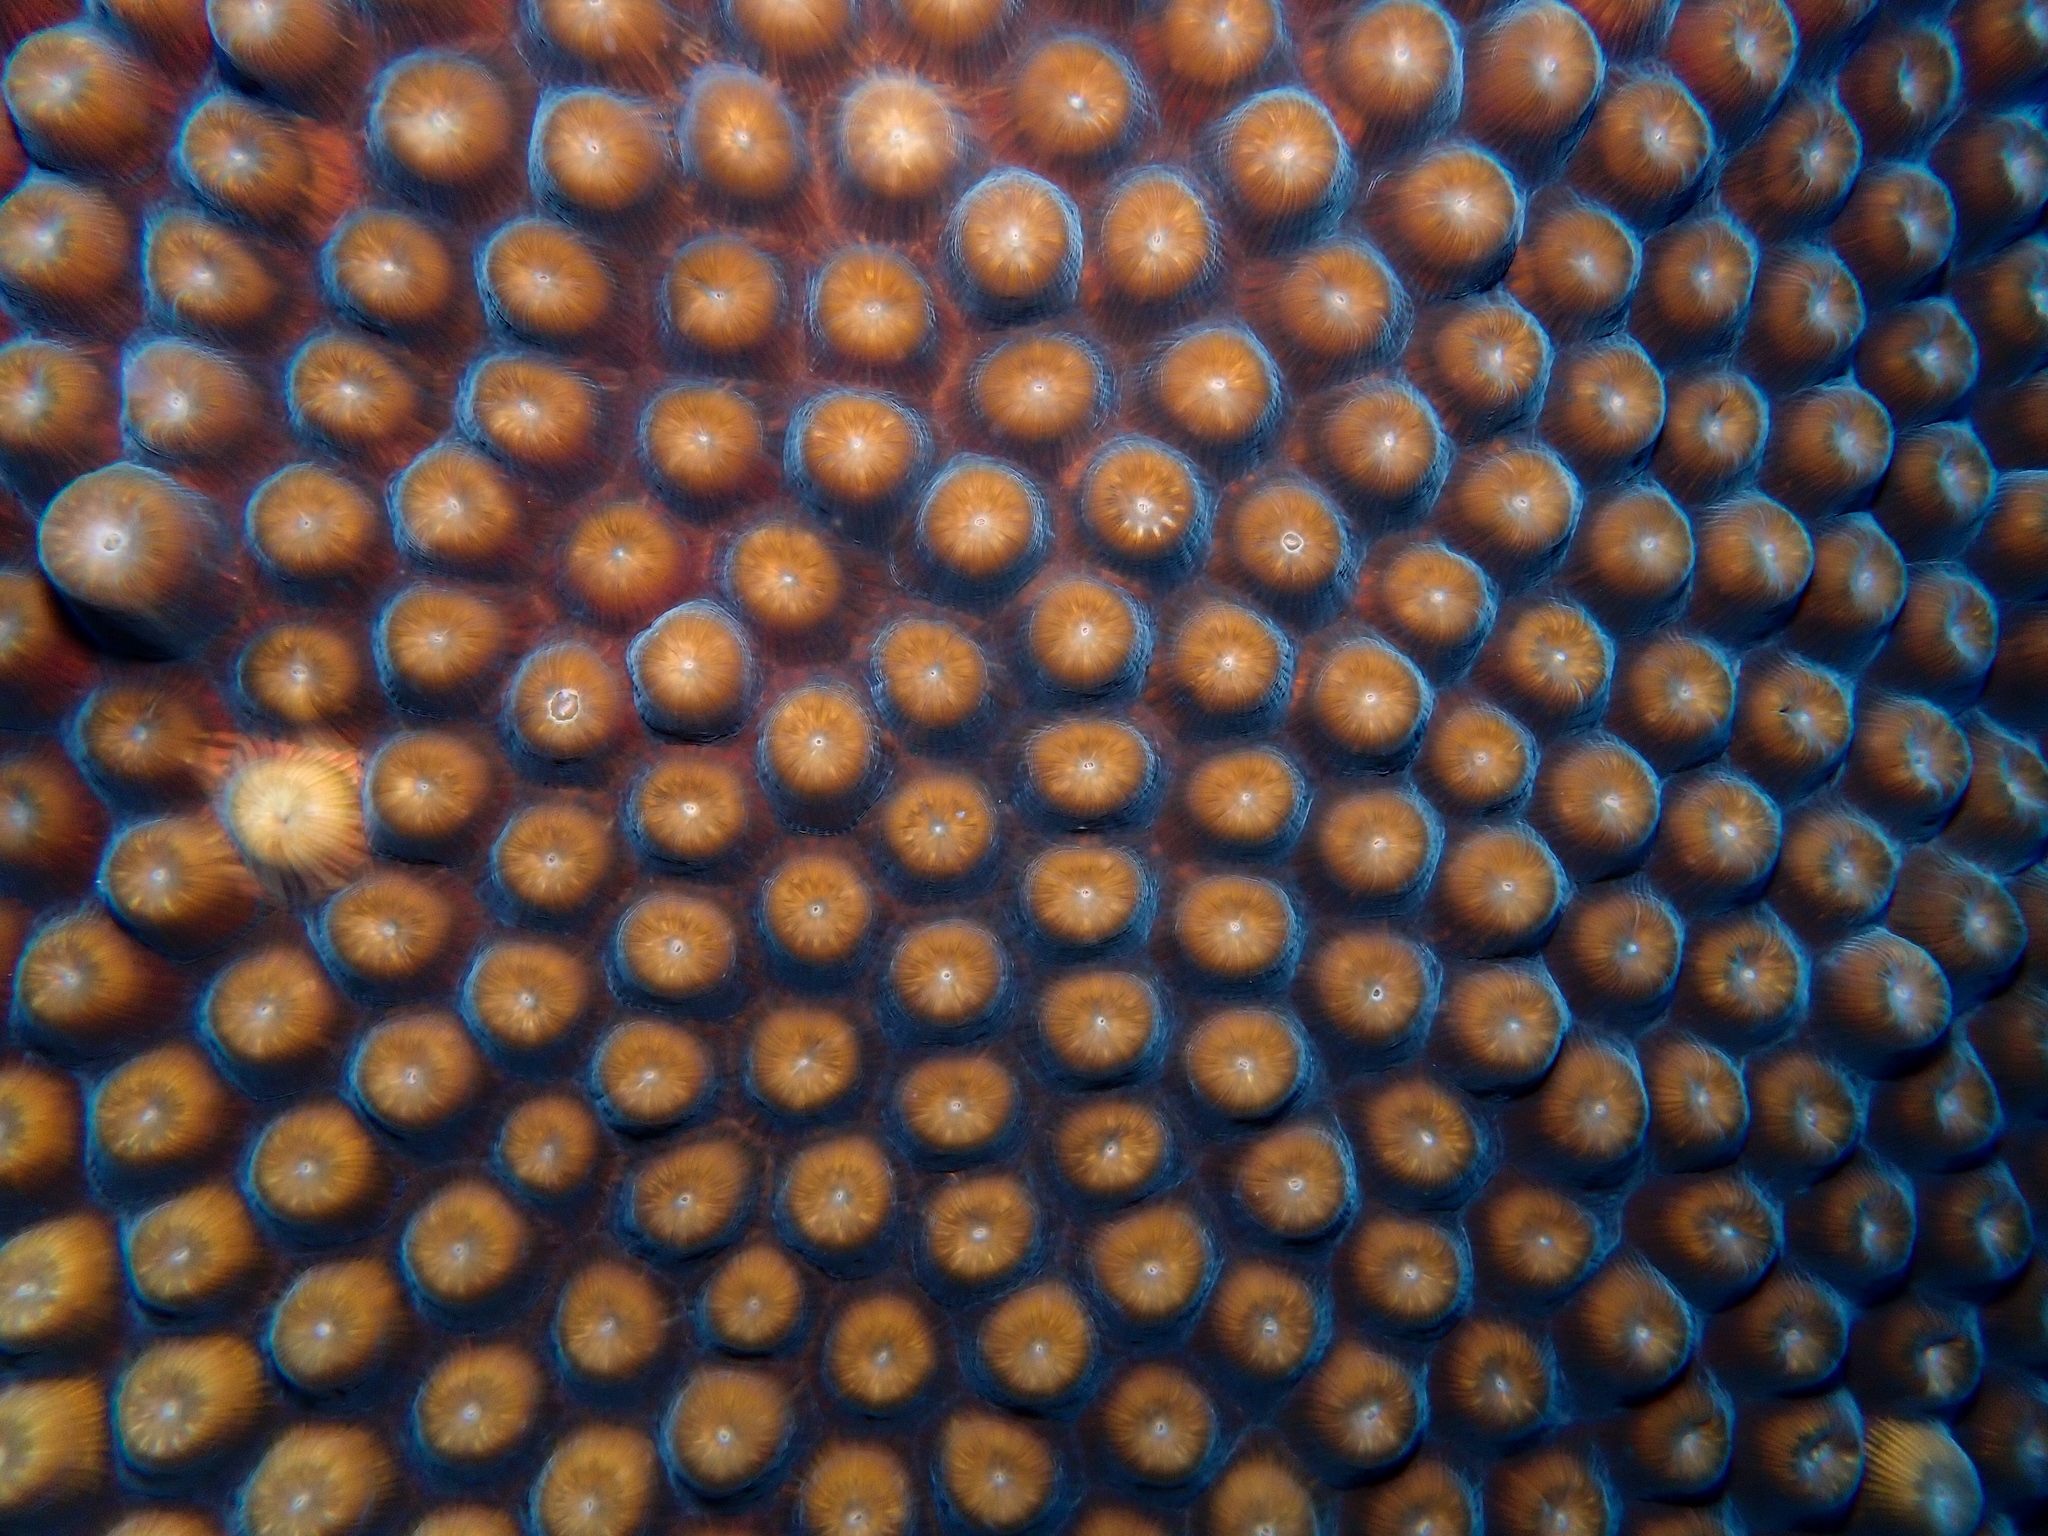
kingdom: Animalia
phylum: Cnidaria
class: Anthozoa
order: Scleractinia
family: Montastraeidae
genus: Montastraea
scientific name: Montastraea cavernosa
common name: Great star coral
